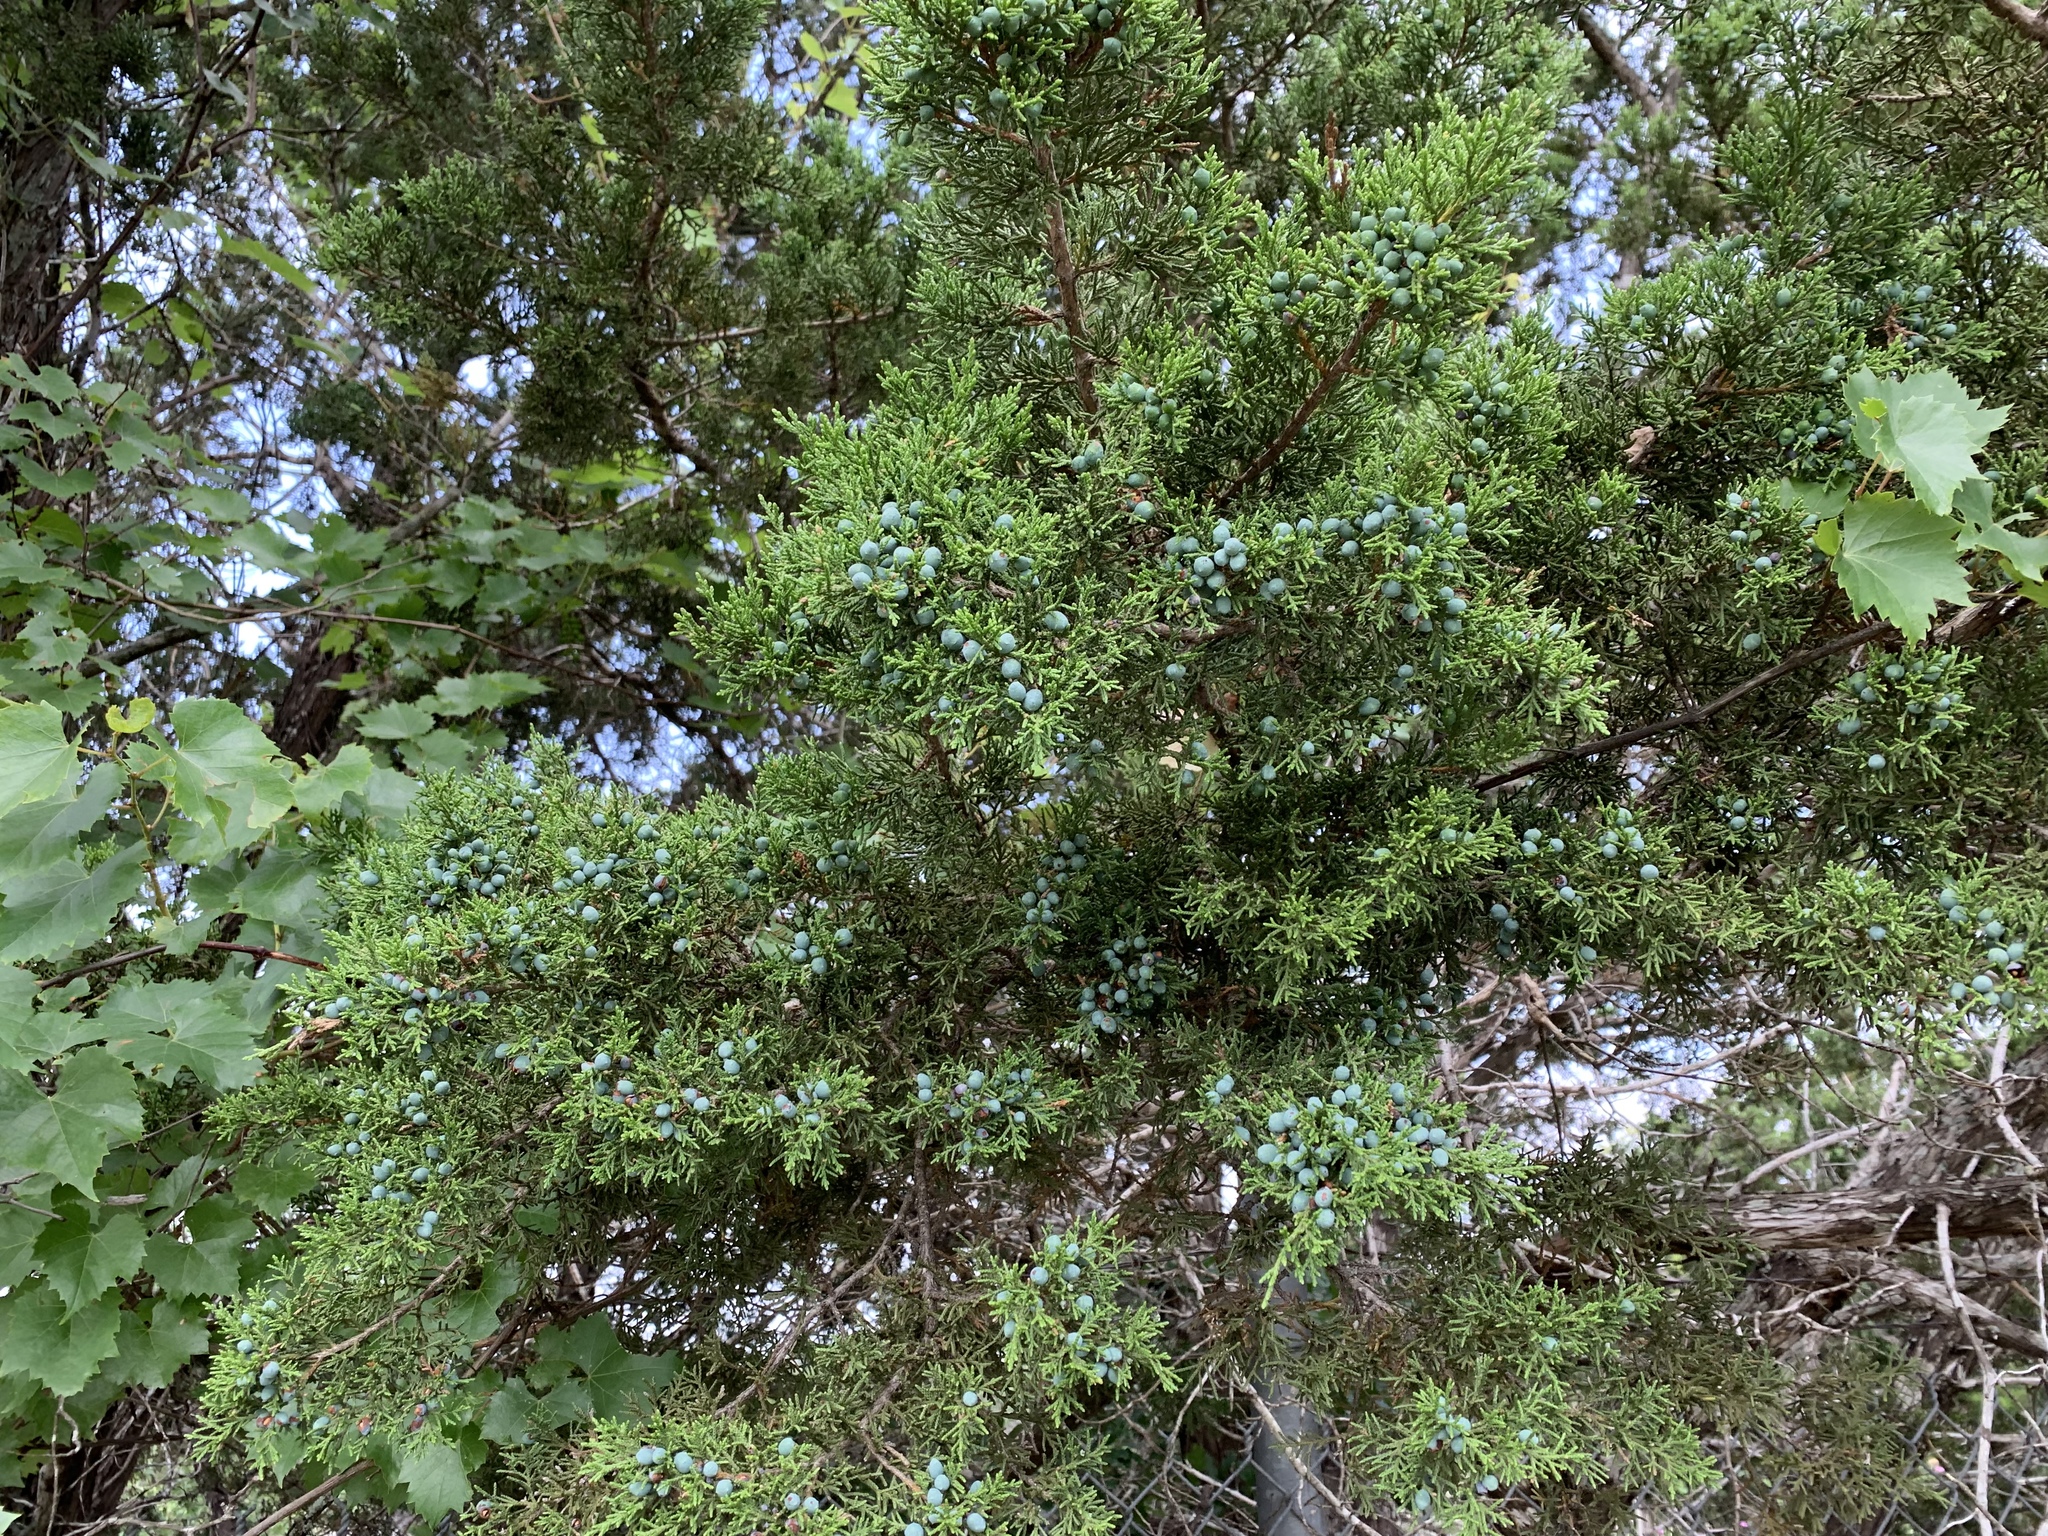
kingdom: Plantae
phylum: Tracheophyta
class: Pinopsida
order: Pinales
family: Cupressaceae
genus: Juniperus
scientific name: Juniperus ashei
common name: Mexican juniper
